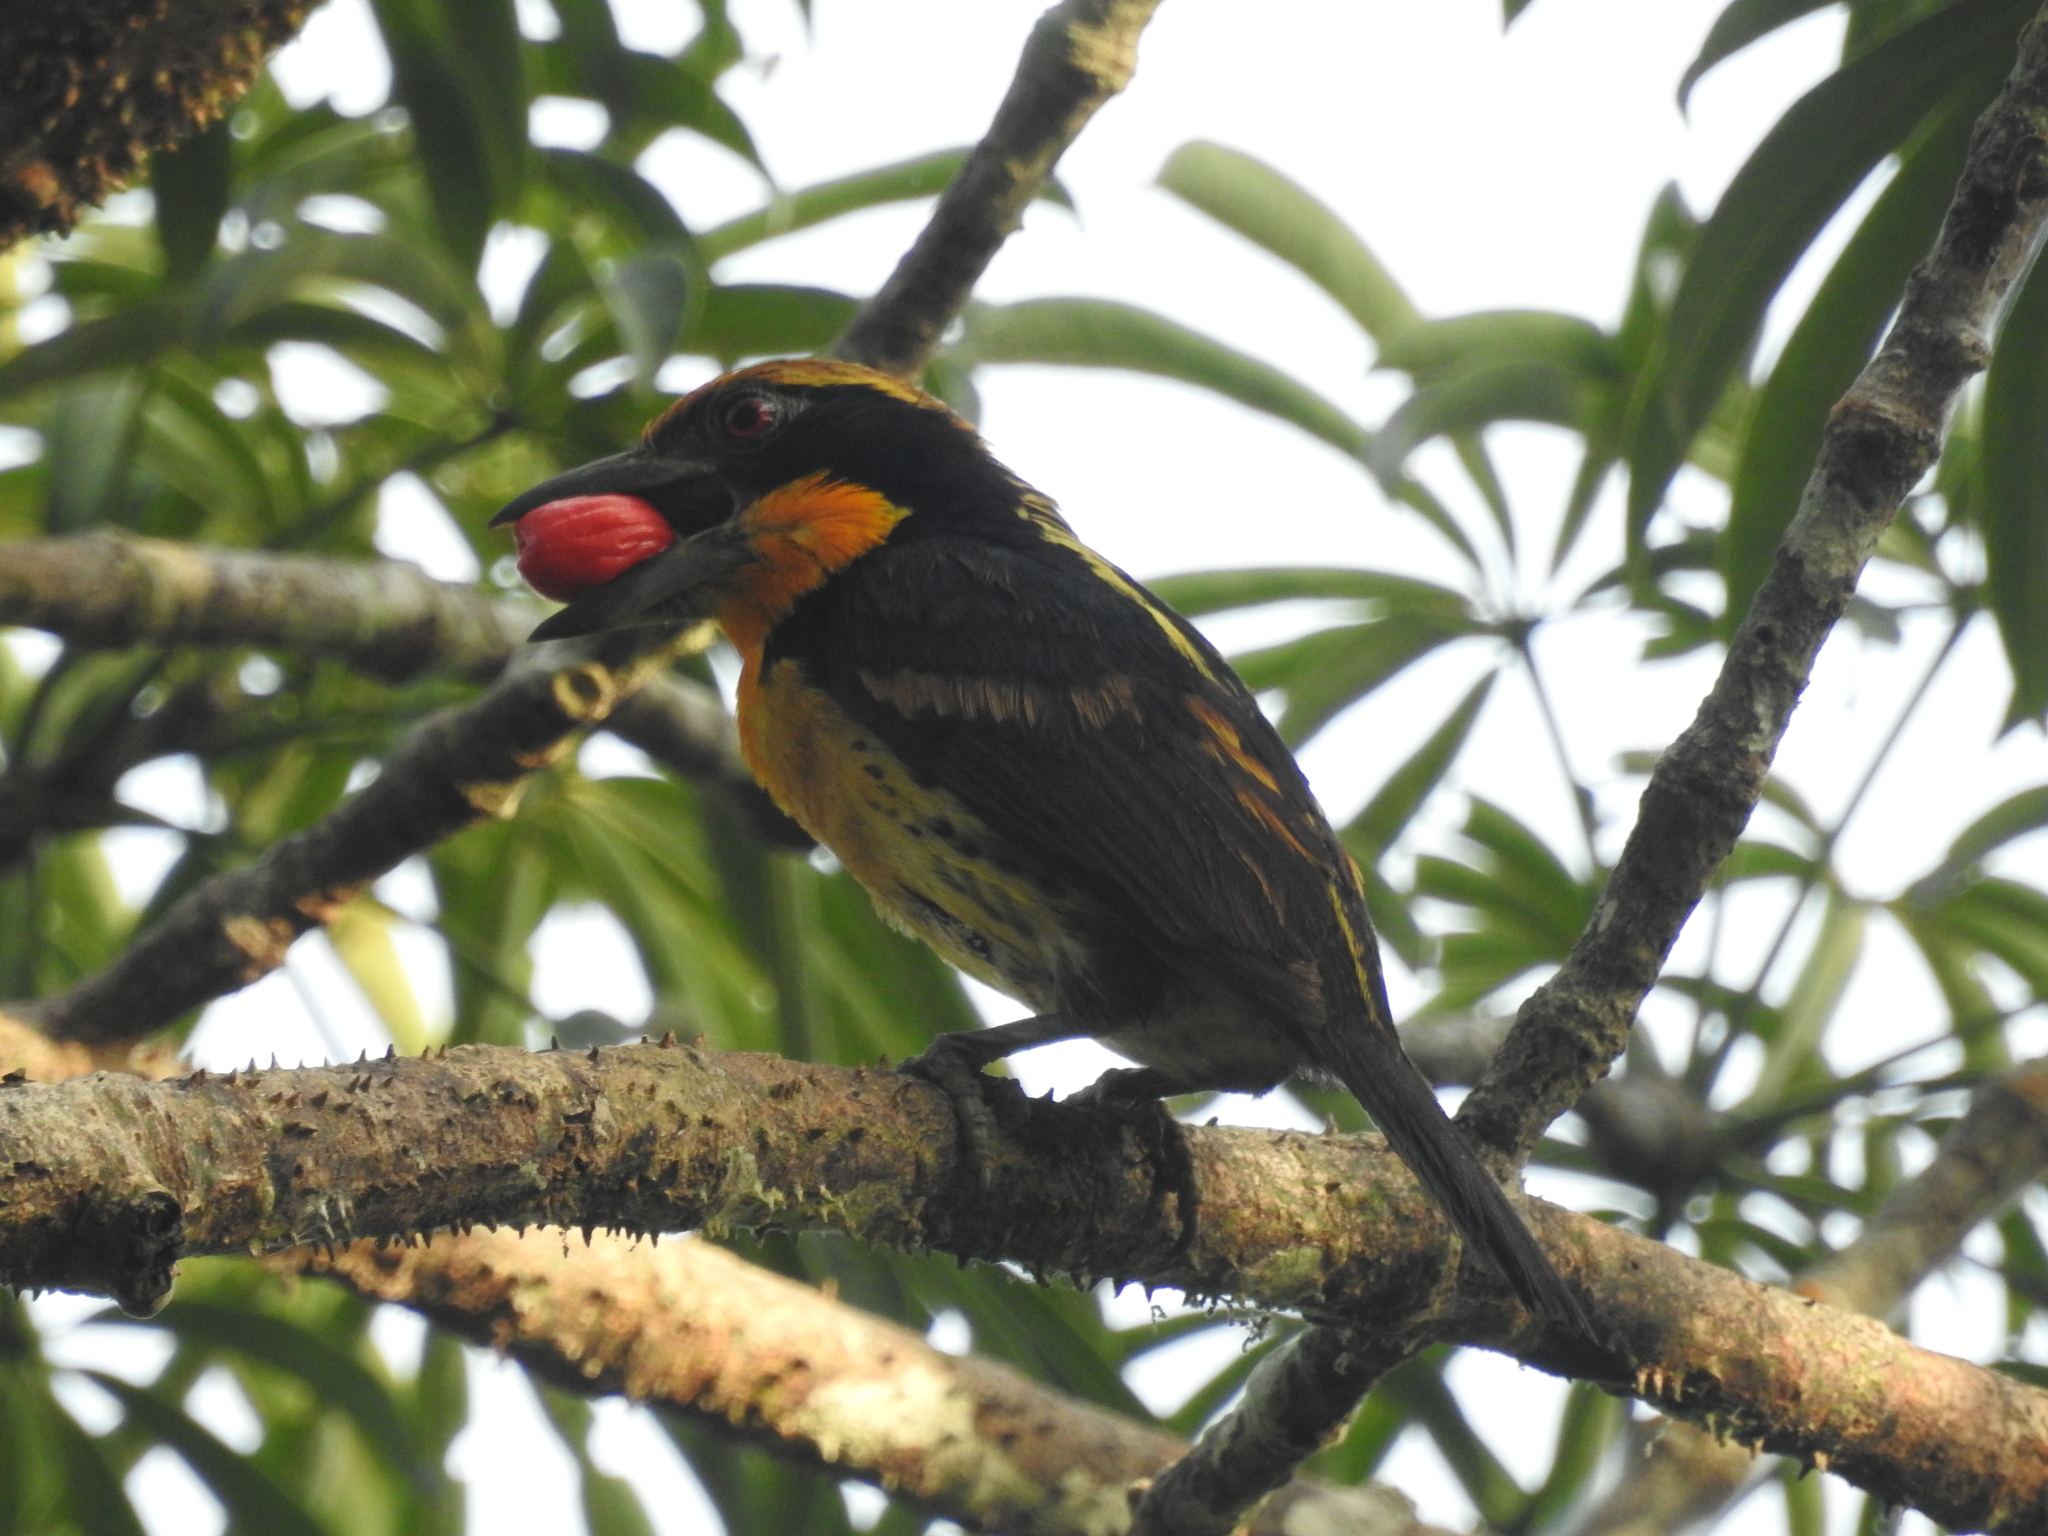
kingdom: Animalia
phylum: Chordata
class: Aves
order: Piciformes
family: Capitonidae
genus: Capito
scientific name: Capito auratus
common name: Gilded barbet
